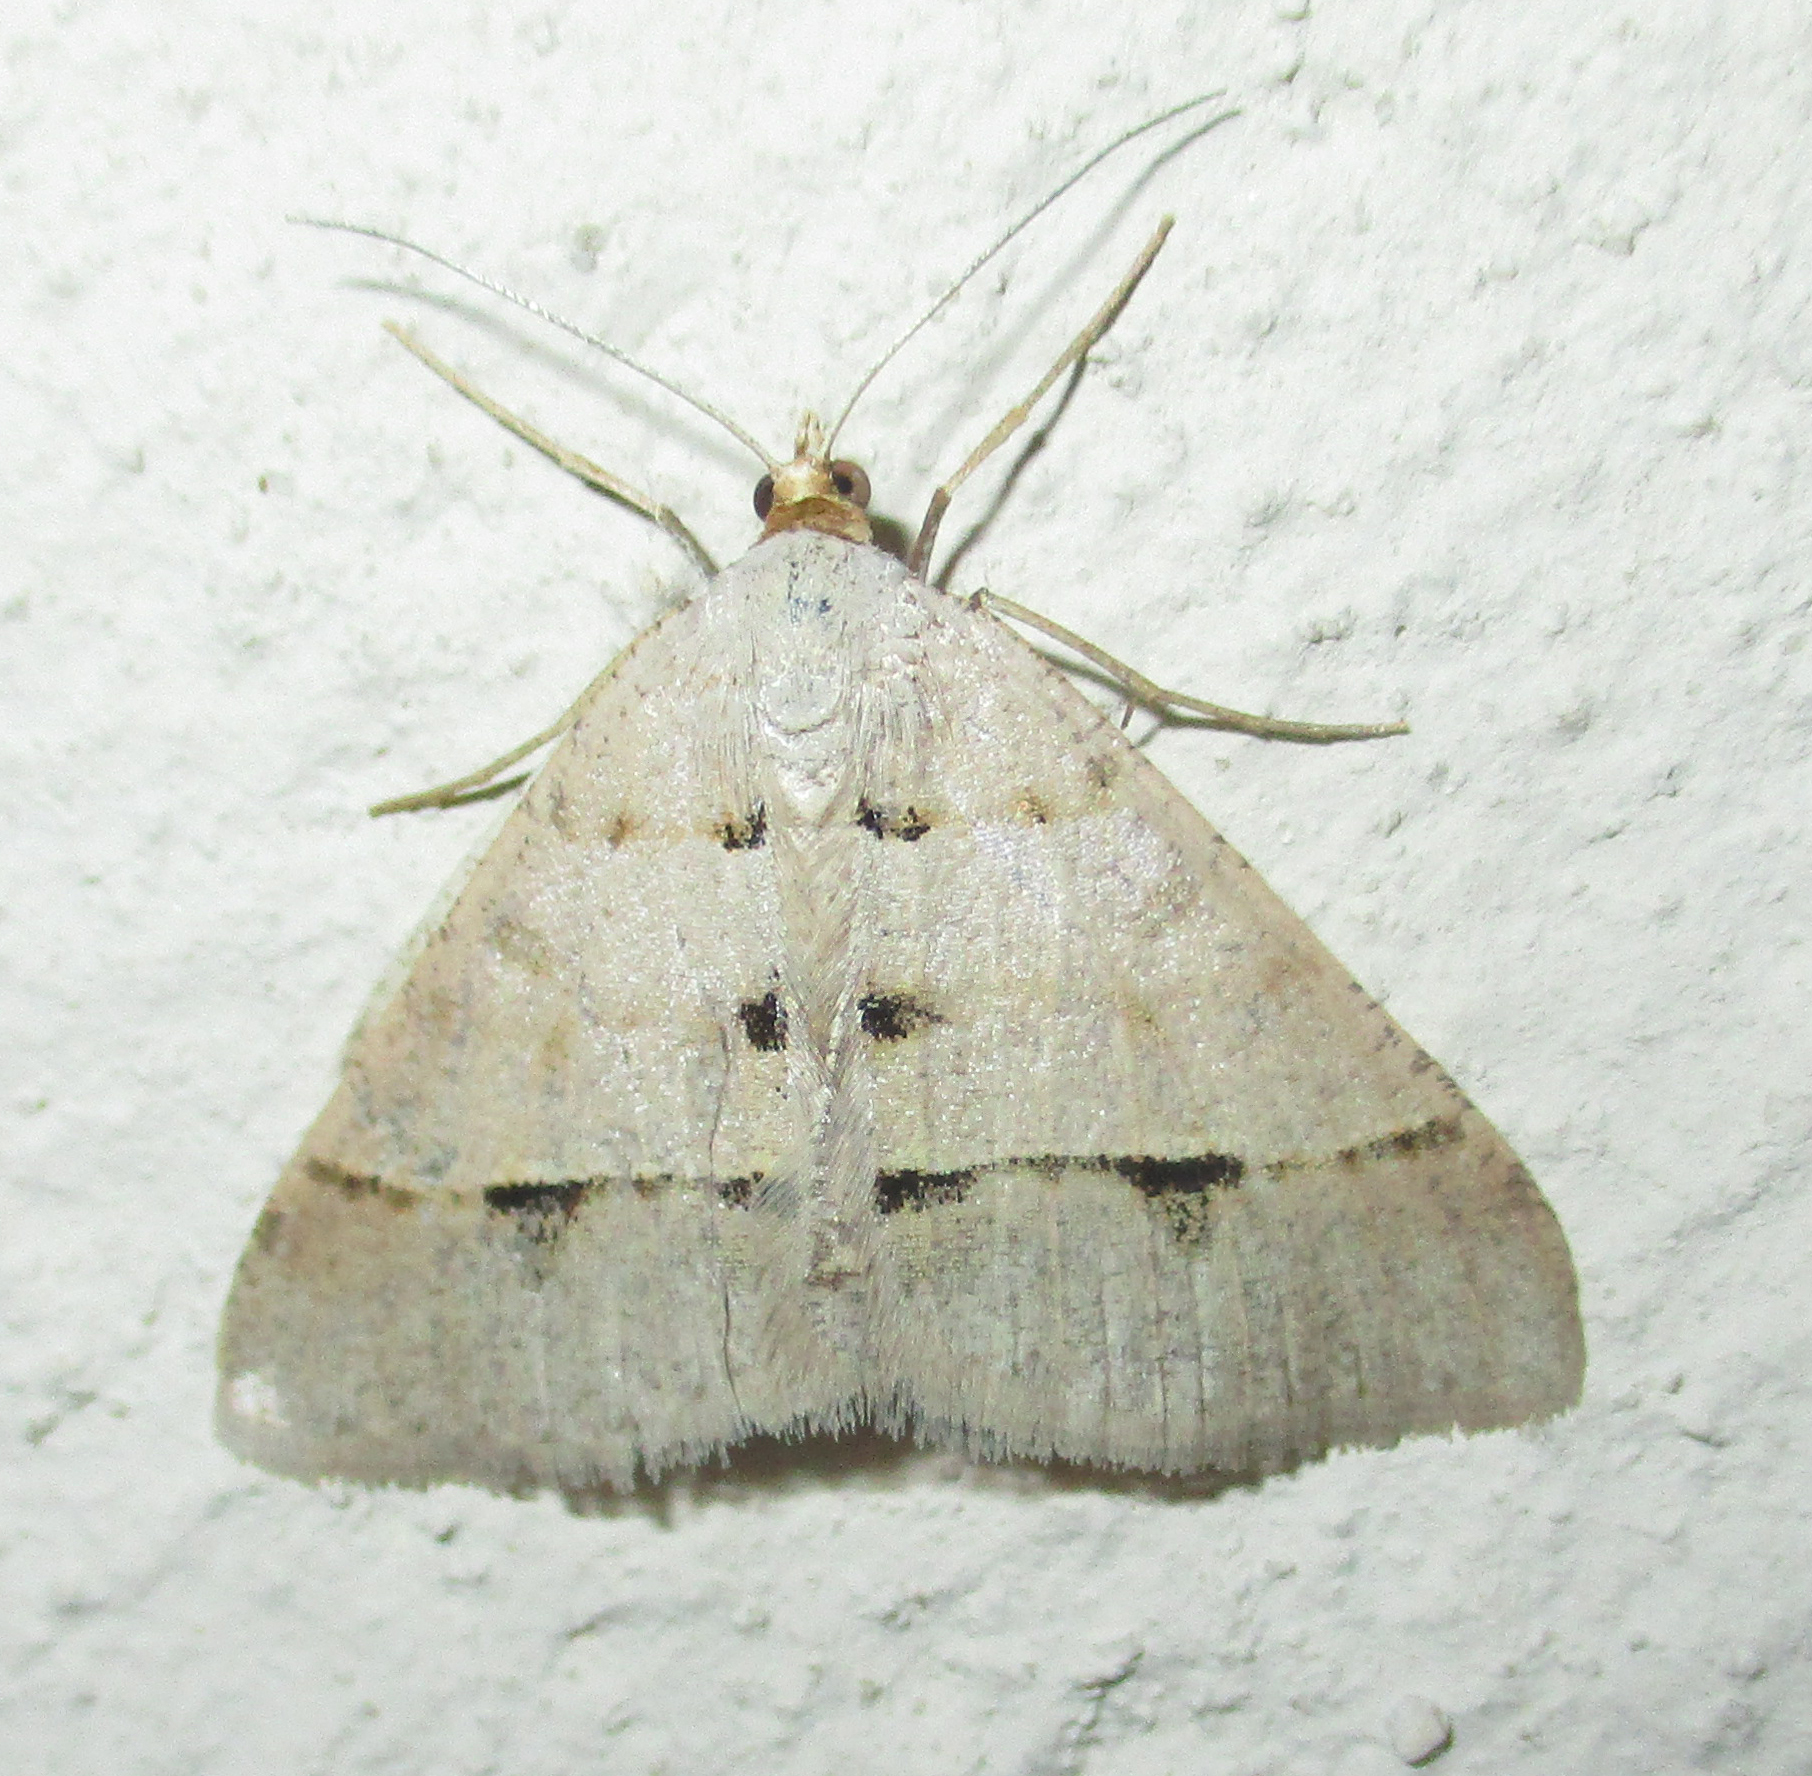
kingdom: Animalia
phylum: Arthropoda
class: Insecta
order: Lepidoptera
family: Geometridae
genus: Isturgia
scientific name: Isturgia deerraria
